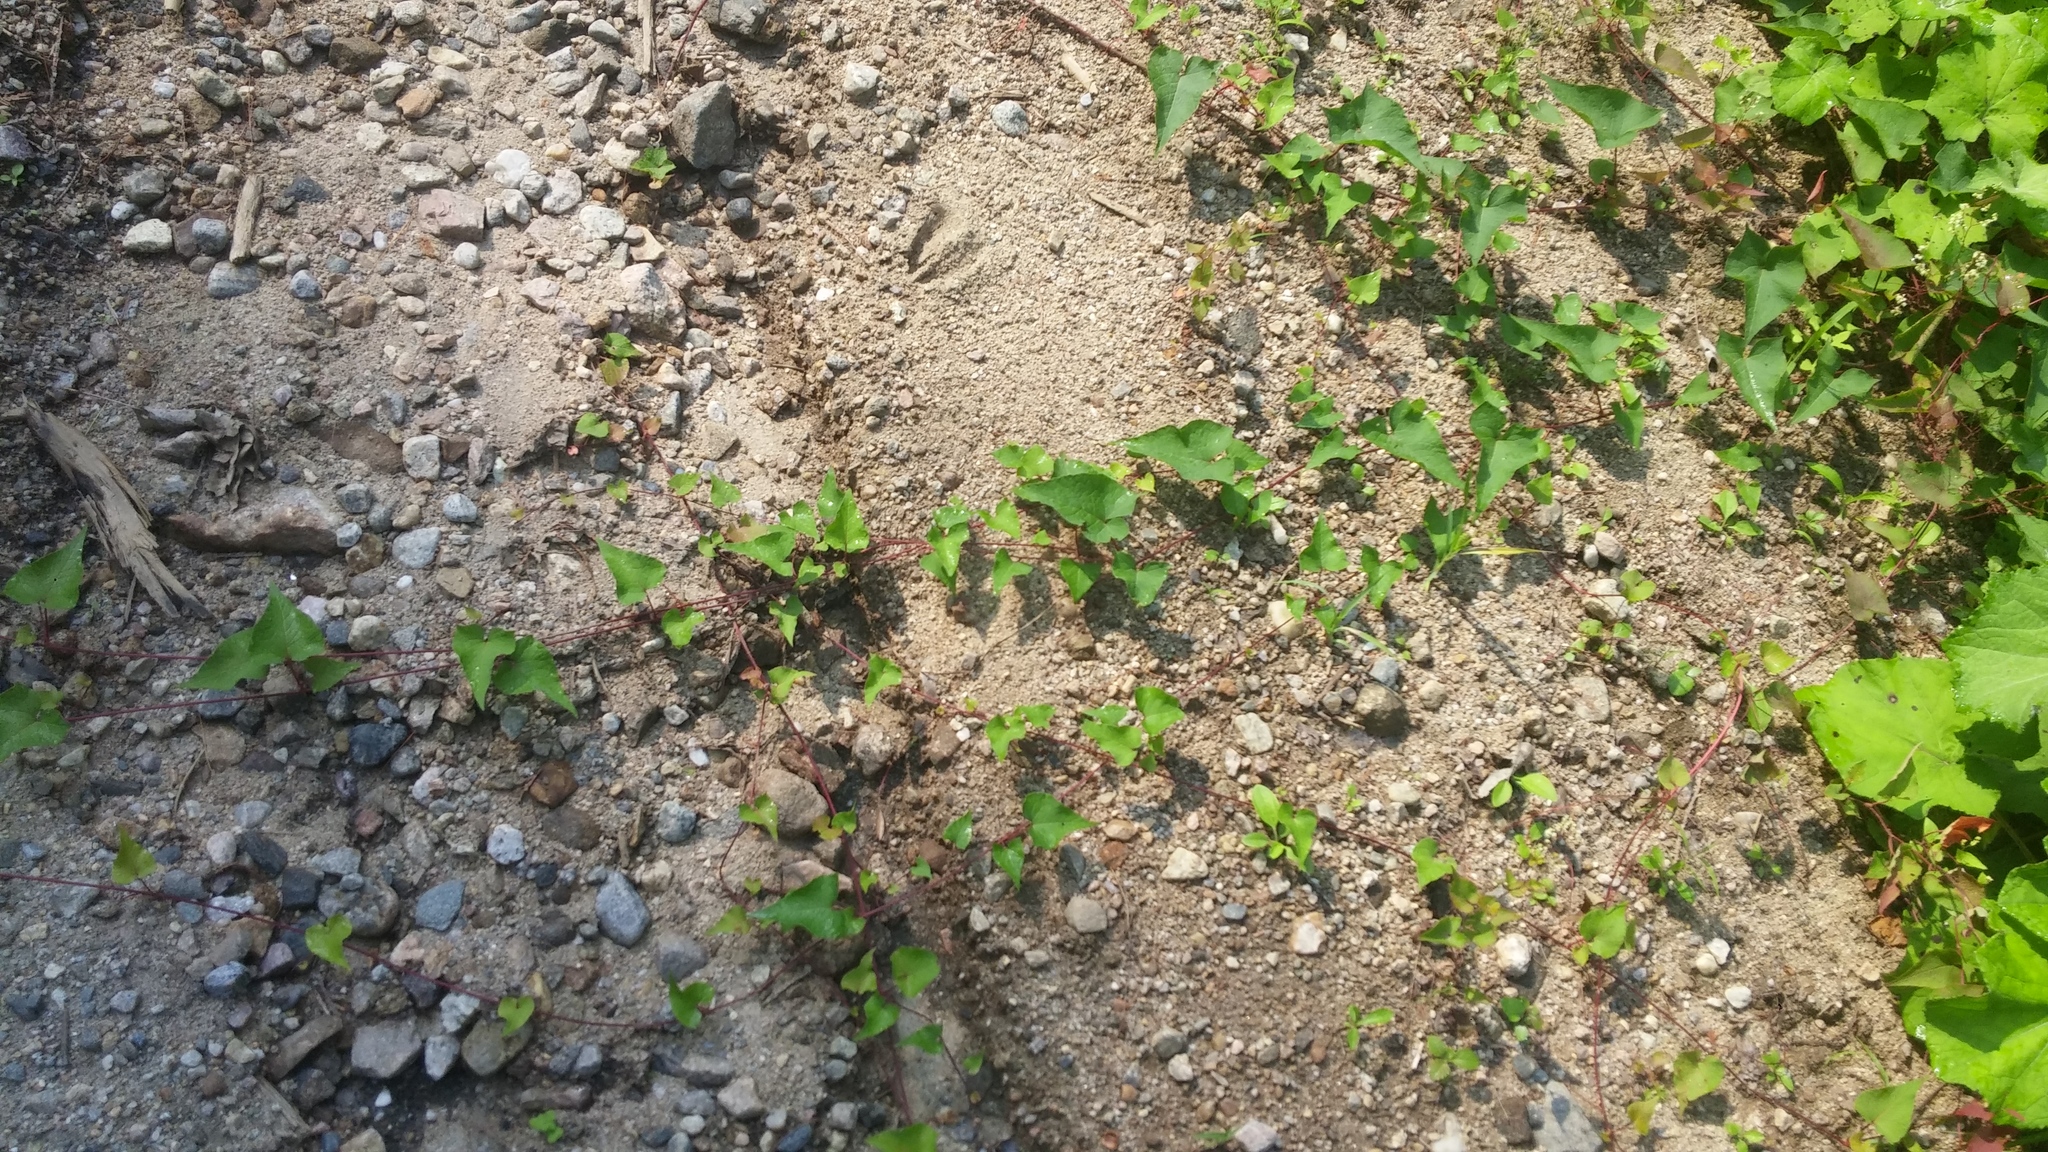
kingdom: Plantae
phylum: Tracheophyta
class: Magnoliopsida
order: Caryophyllales
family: Polygonaceae
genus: Parogonum
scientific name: Parogonum ciliinode
